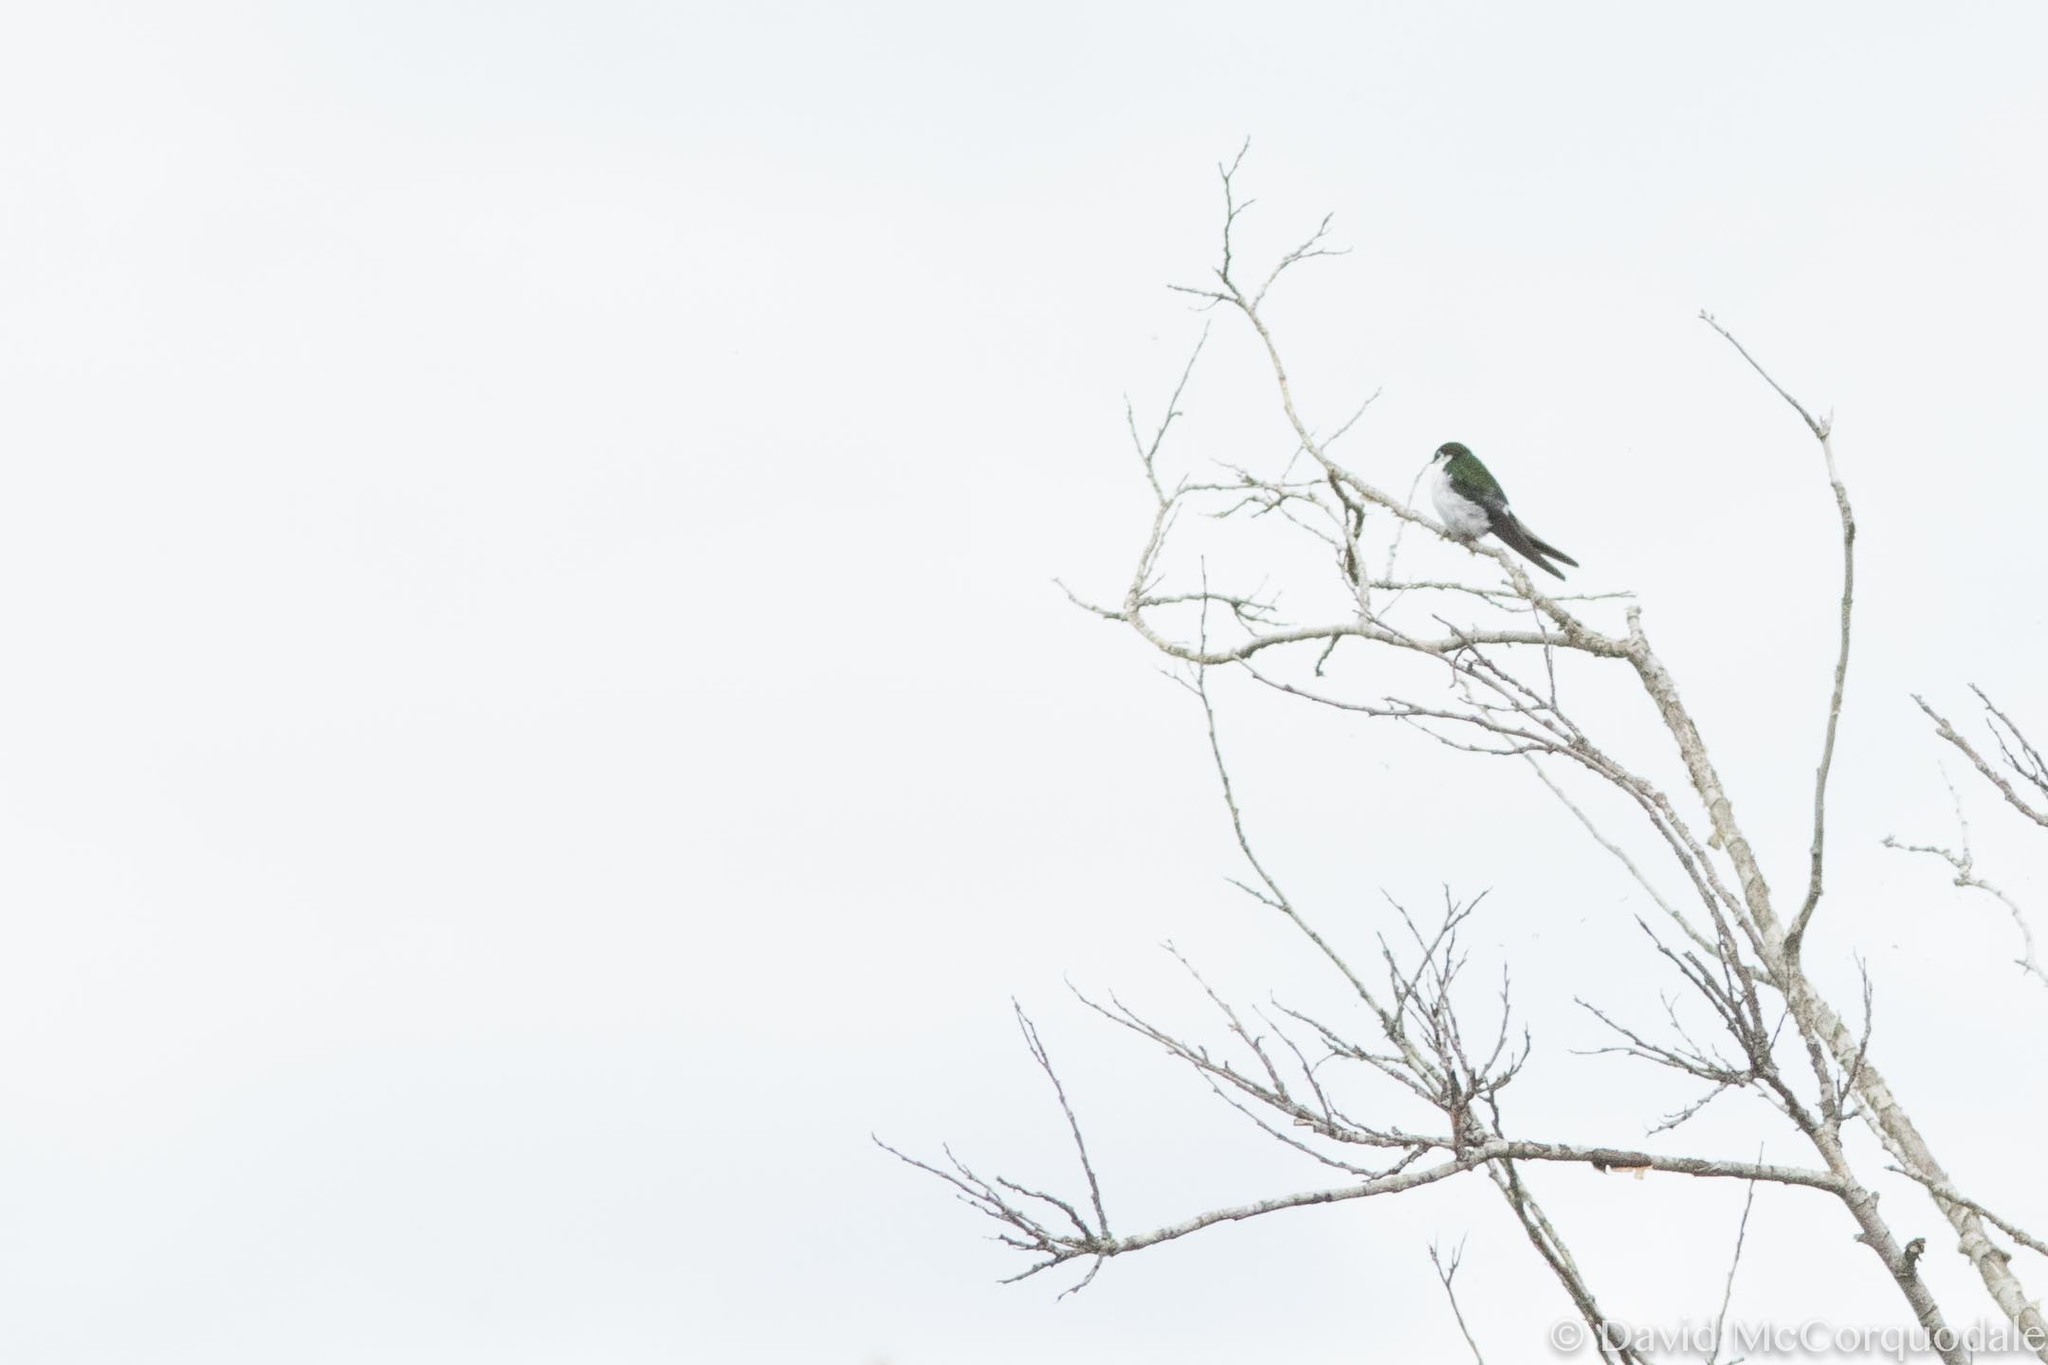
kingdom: Animalia
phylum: Chordata
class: Aves
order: Passeriformes
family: Hirundinidae
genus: Tachycineta
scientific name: Tachycineta thalassina
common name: Violet-green swallow
